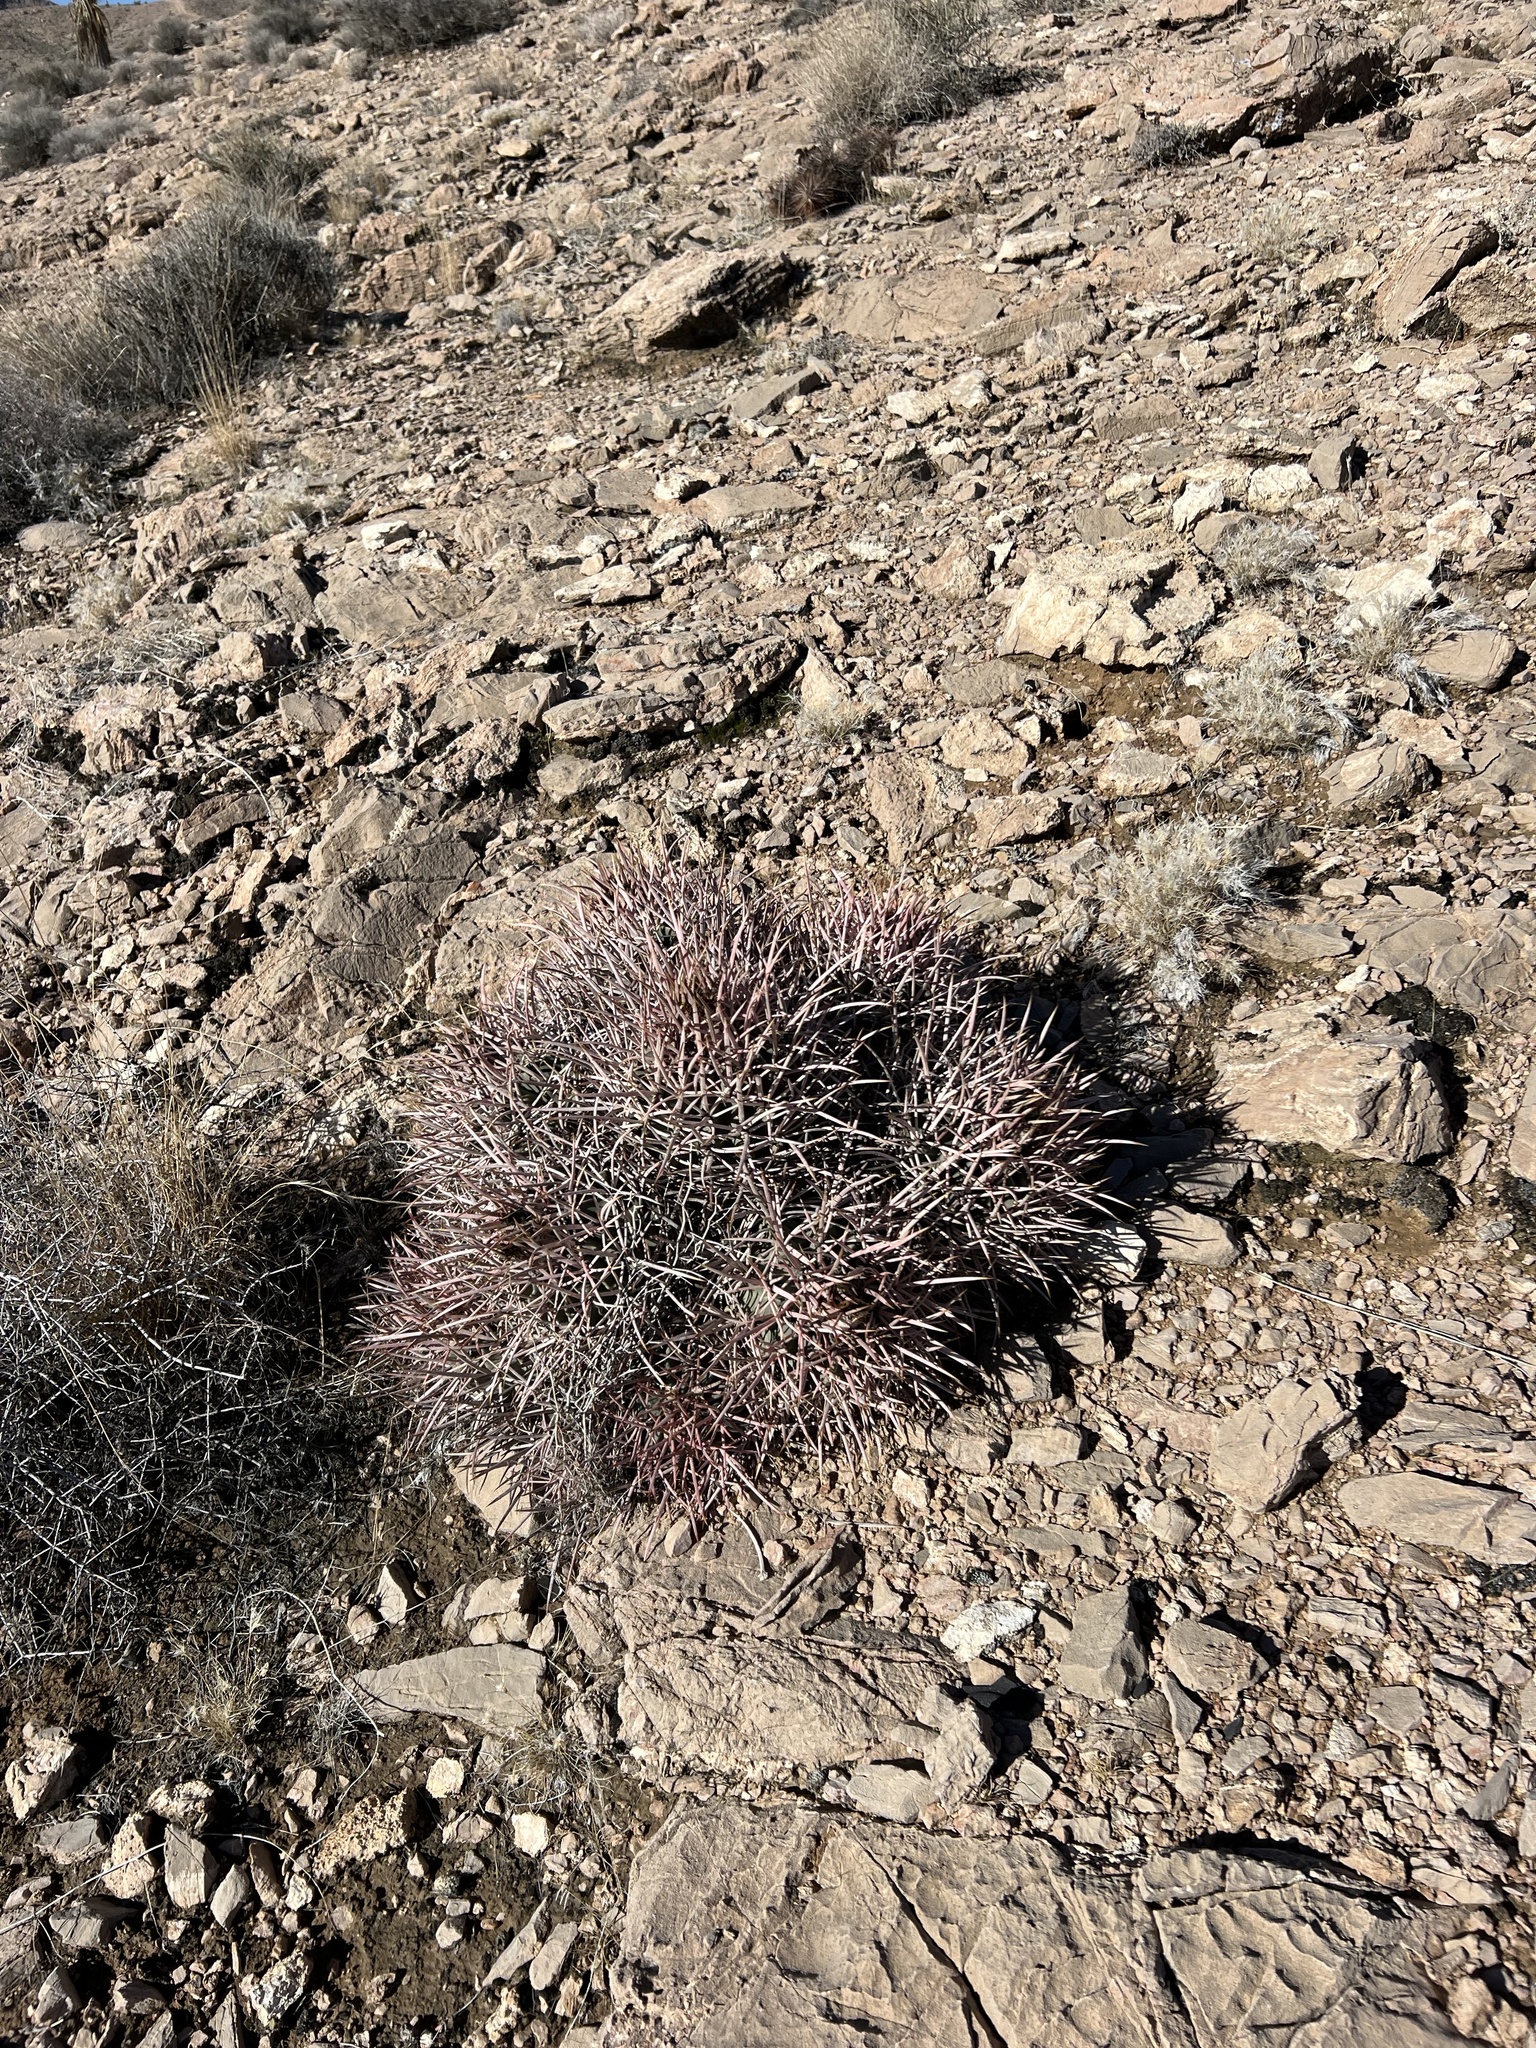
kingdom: Plantae
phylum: Tracheophyta
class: Magnoliopsida
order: Caryophyllales
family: Cactaceae
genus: Echinocactus
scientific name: Echinocactus polycephalus
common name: Cottontop cactus
